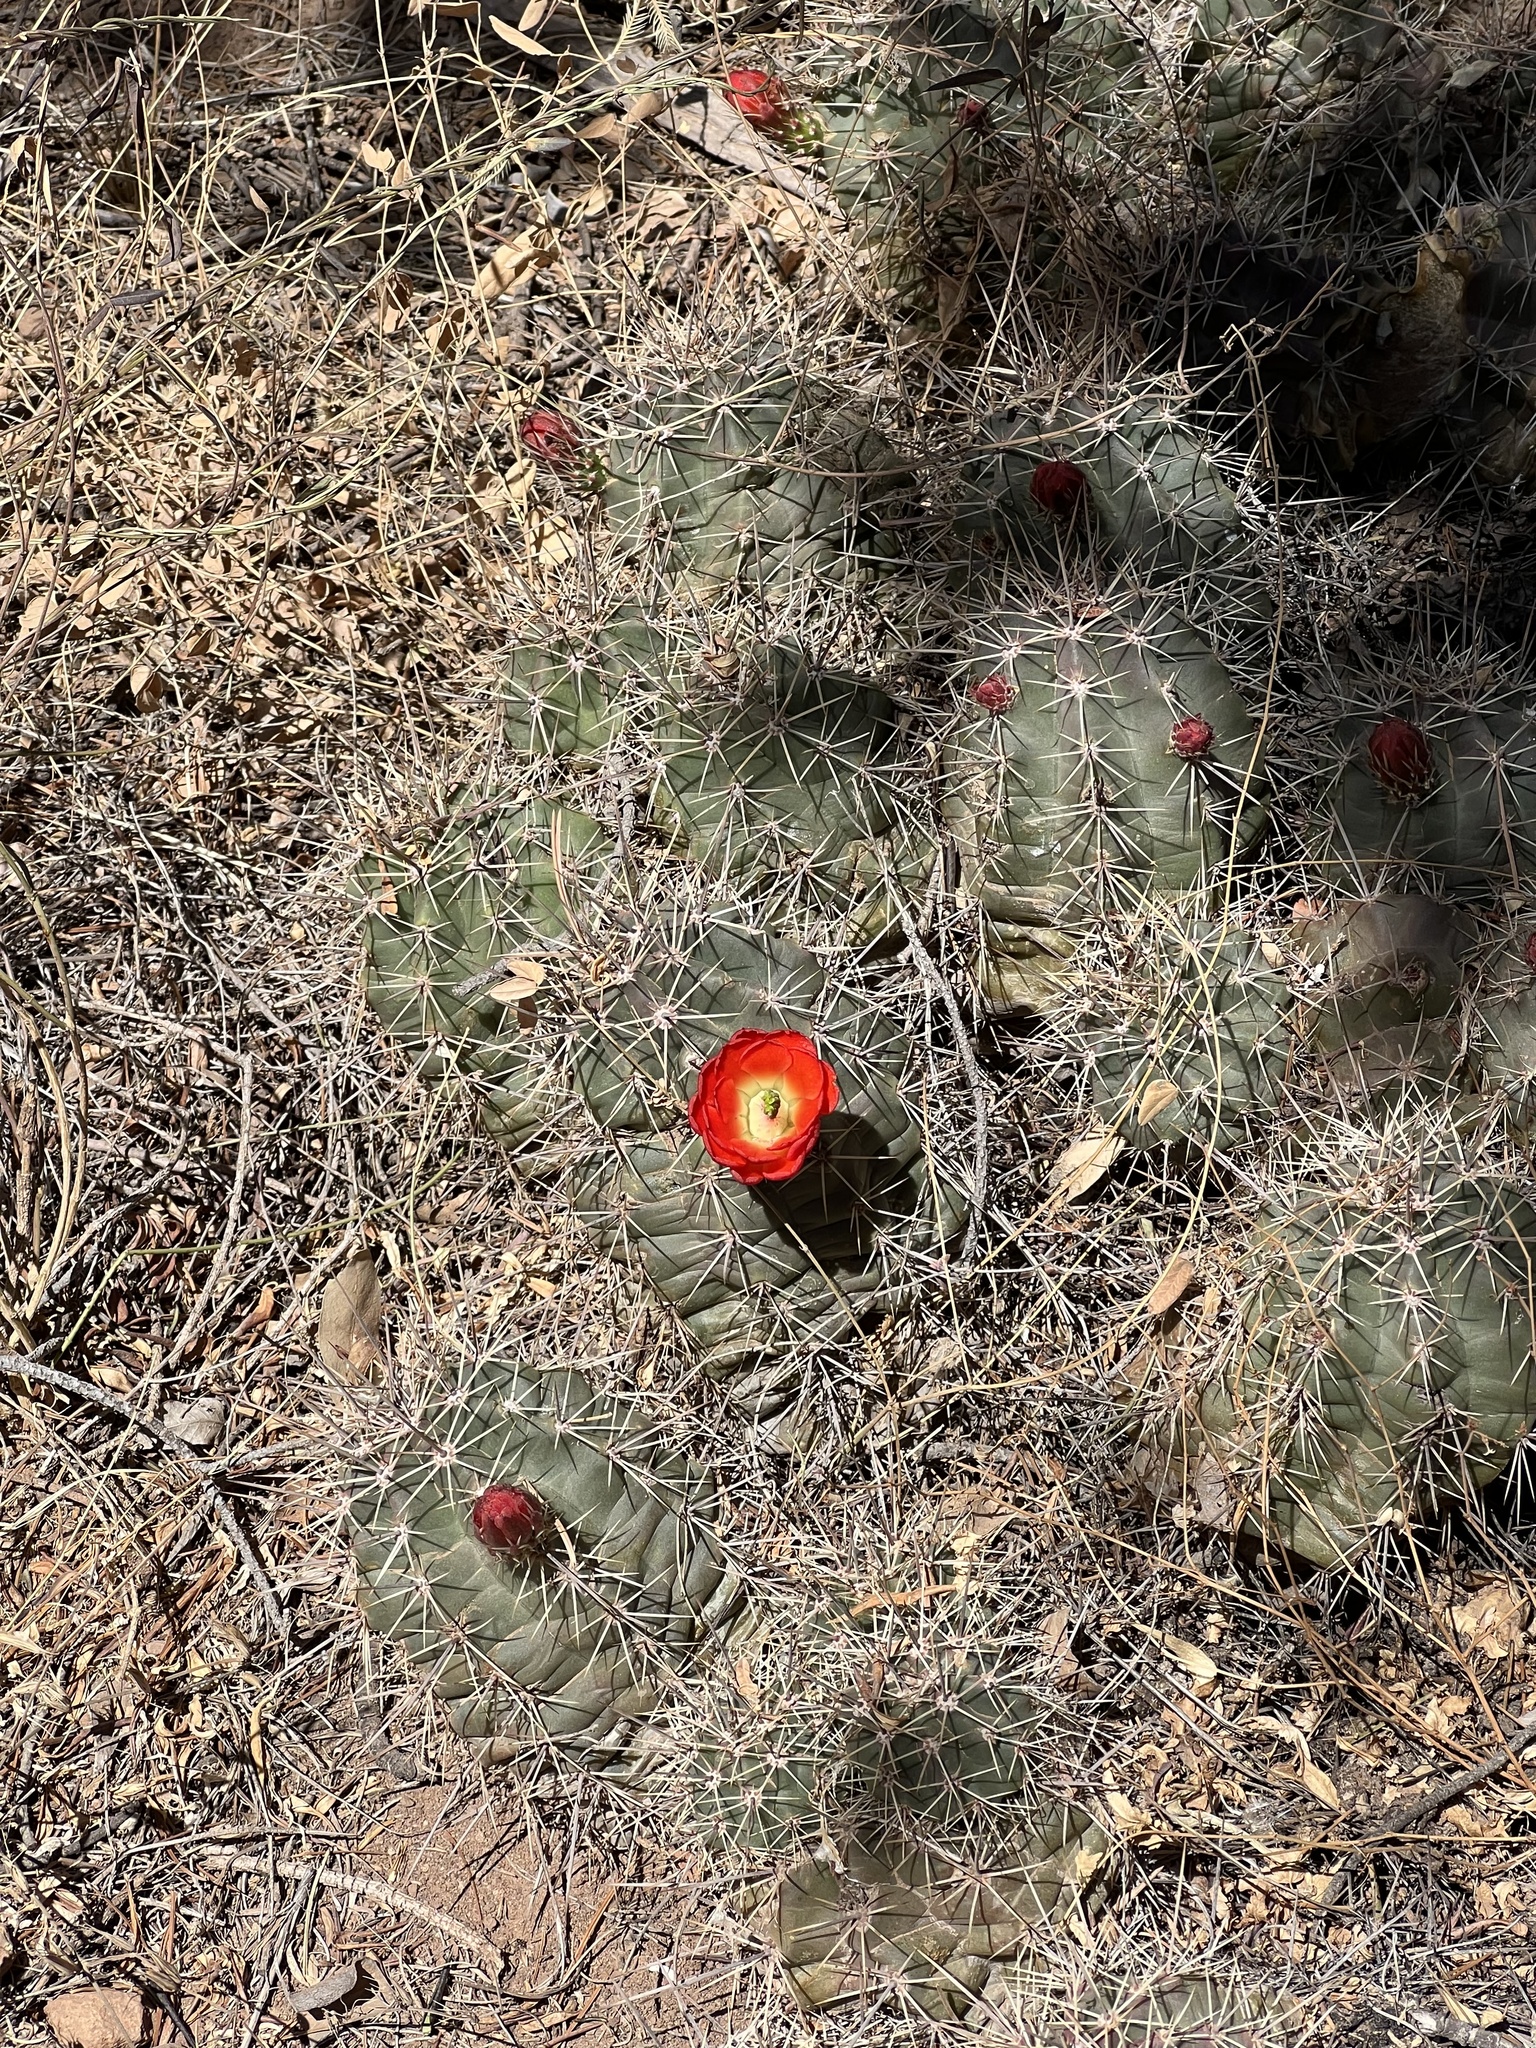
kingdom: Plantae
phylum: Tracheophyta
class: Magnoliopsida
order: Caryophyllales
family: Cactaceae
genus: Echinocereus
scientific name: Echinocereus coccineus
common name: Scarlet hedgehog cactus
